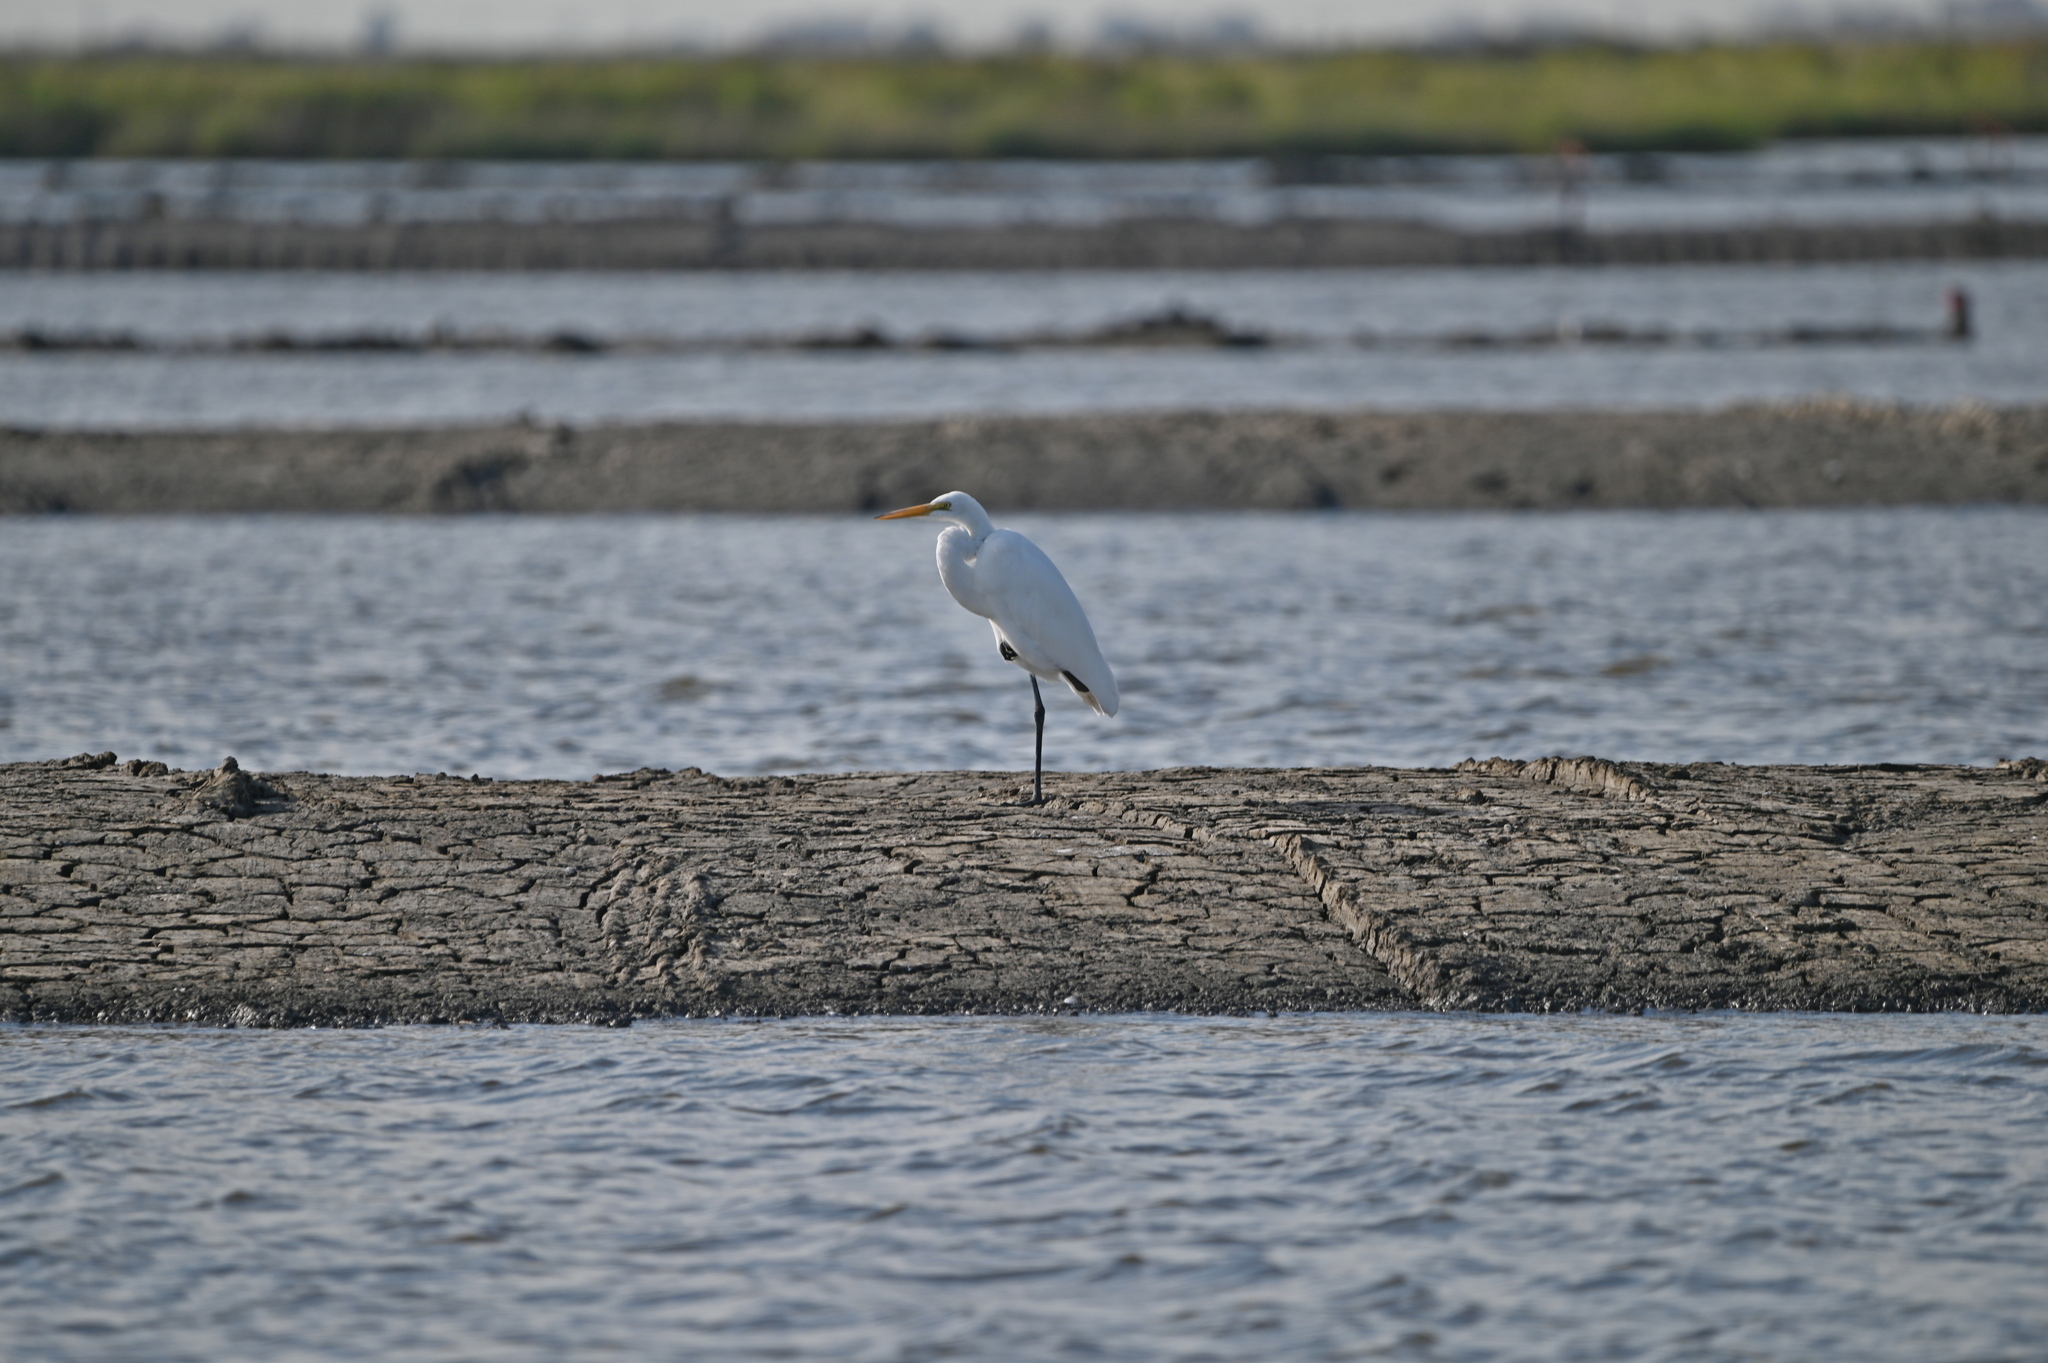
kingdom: Animalia
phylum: Chordata
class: Aves
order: Pelecaniformes
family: Ardeidae
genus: Ardea
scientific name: Ardea alba
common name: Great egret
